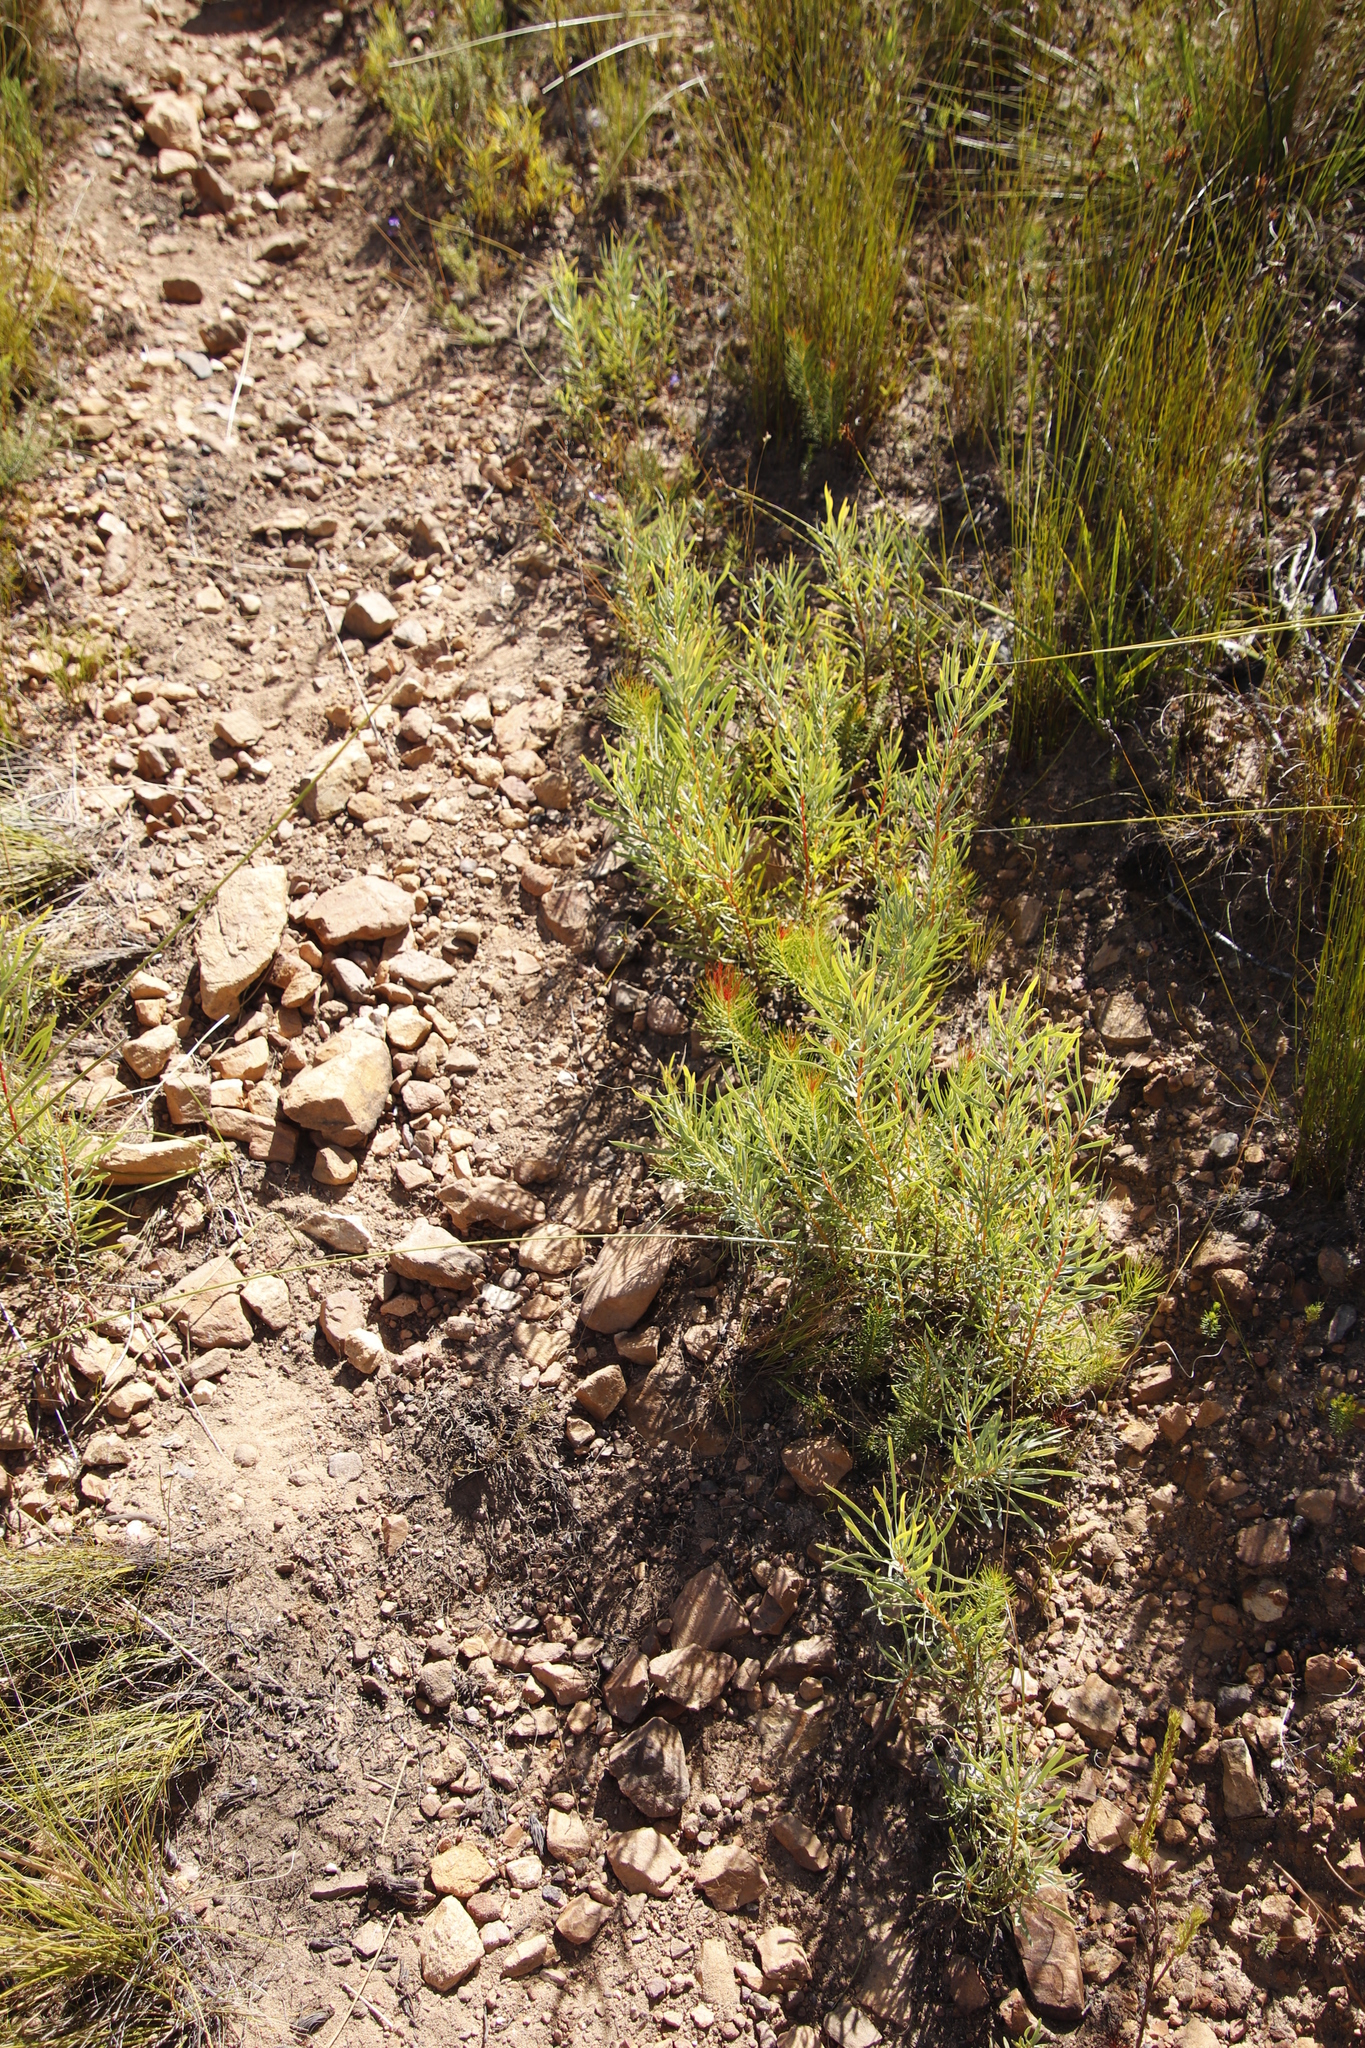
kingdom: Plantae
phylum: Tracheophyta
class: Magnoliopsida
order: Proteales
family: Proteaceae
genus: Protea
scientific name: Protea subulifolia
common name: Awl-leaf sugarbush
